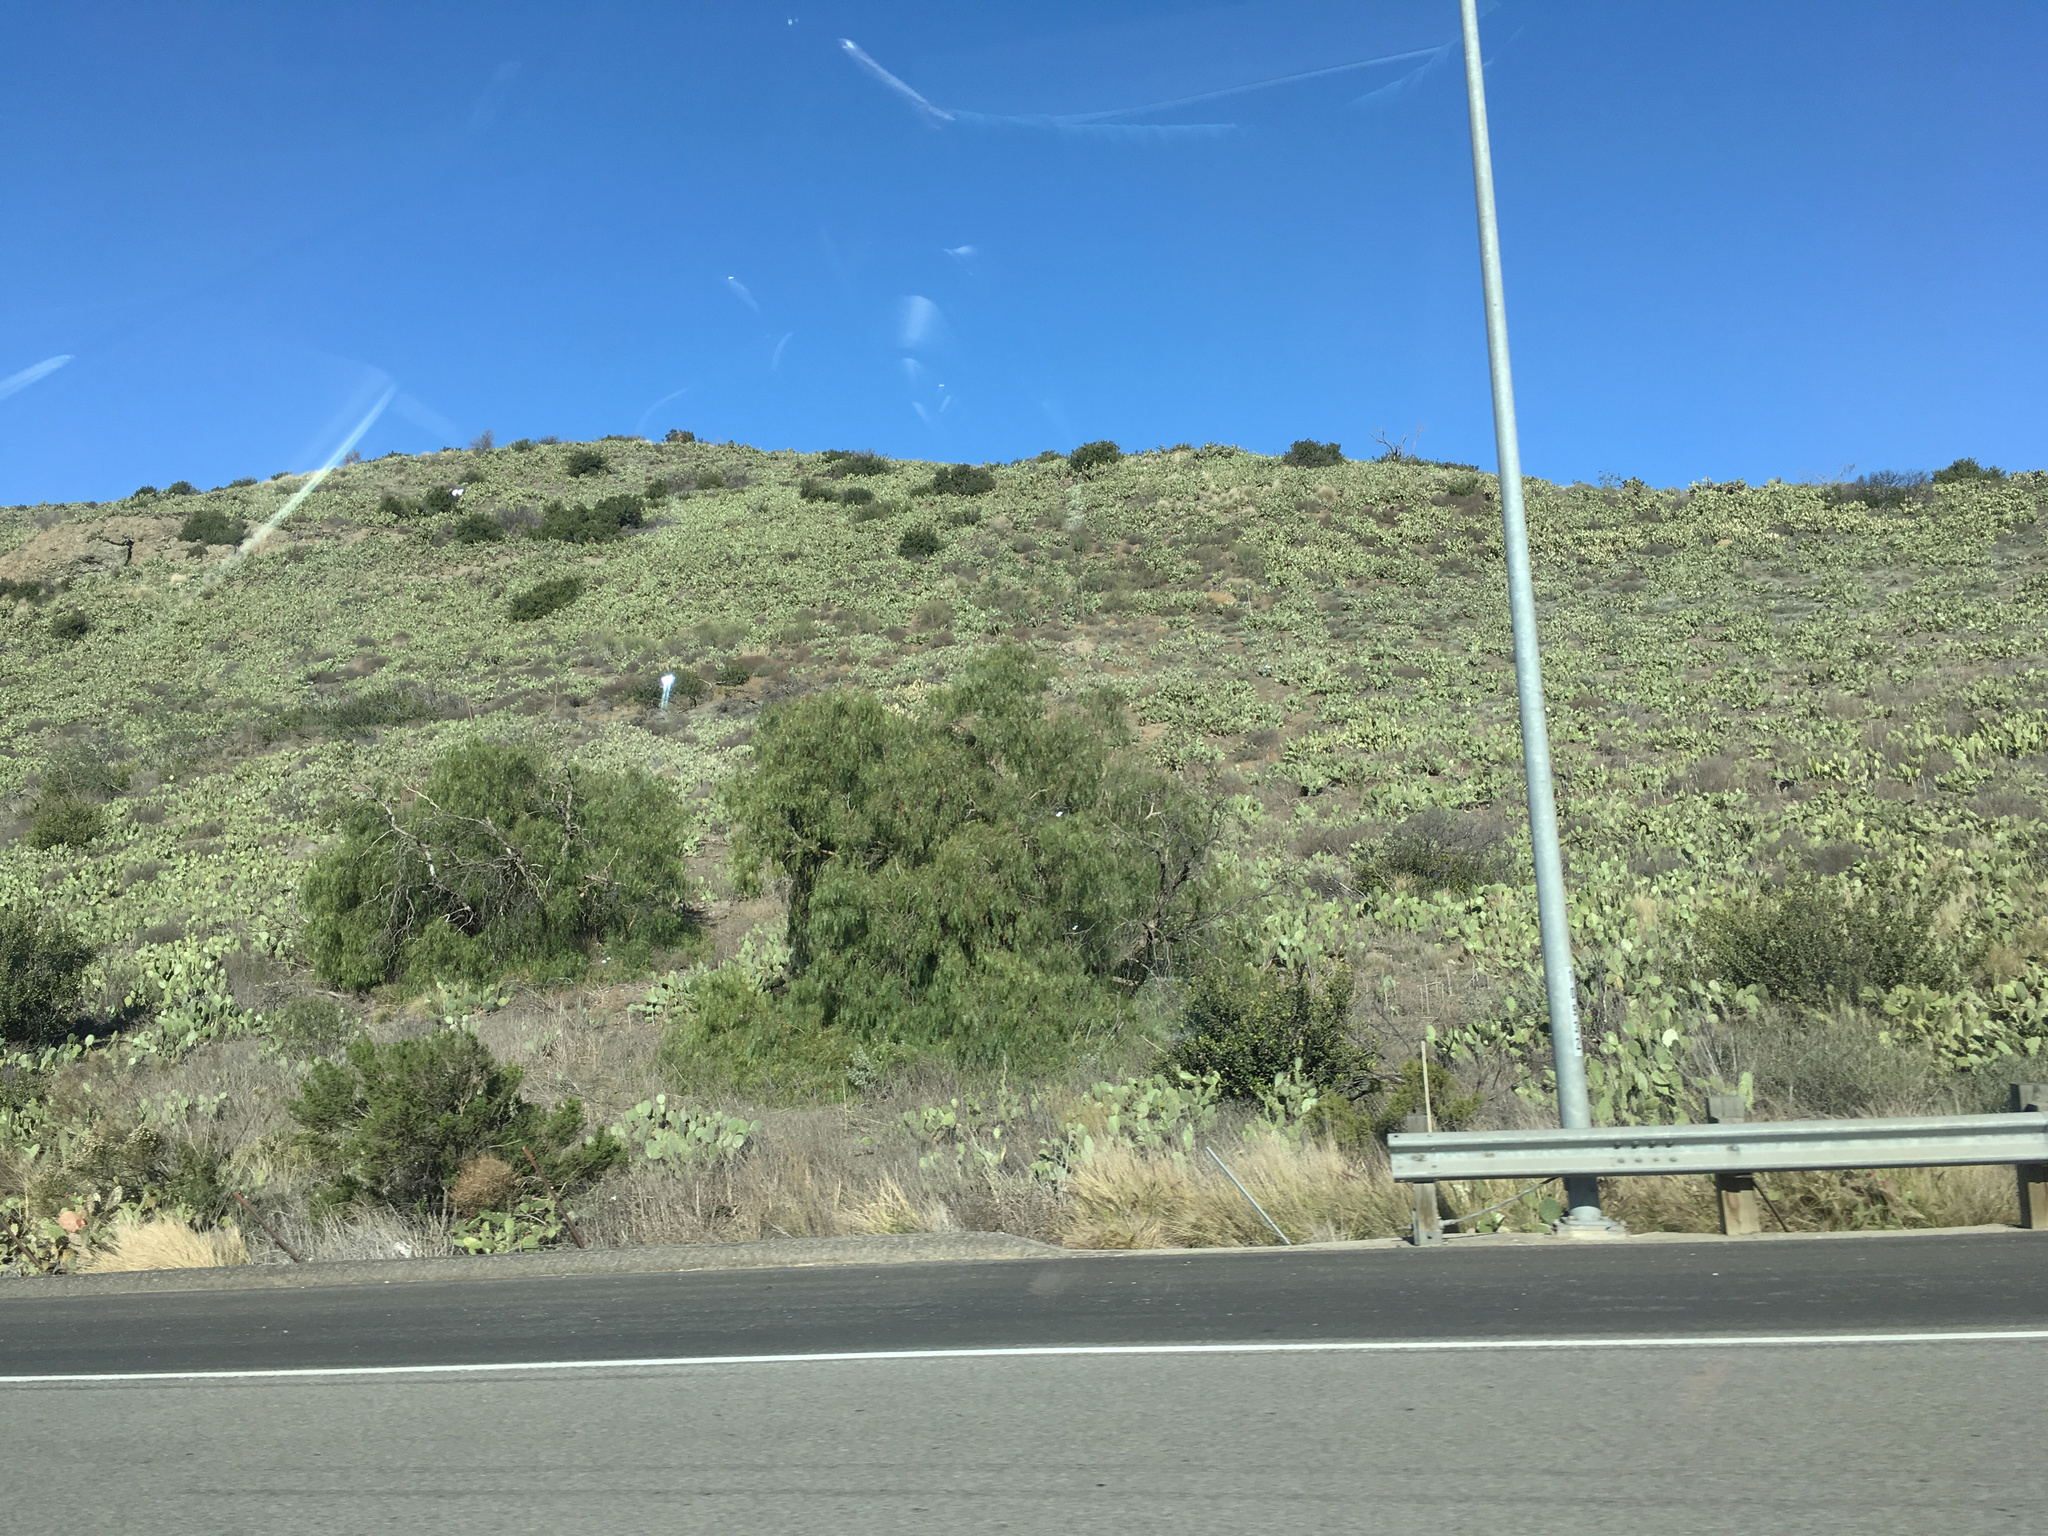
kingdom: Plantae
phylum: Tracheophyta
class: Magnoliopsida
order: Caryophyllales
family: Cactaceae
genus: Opuntia
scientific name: Opuntia littoralis
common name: Coastal prickly-pear
